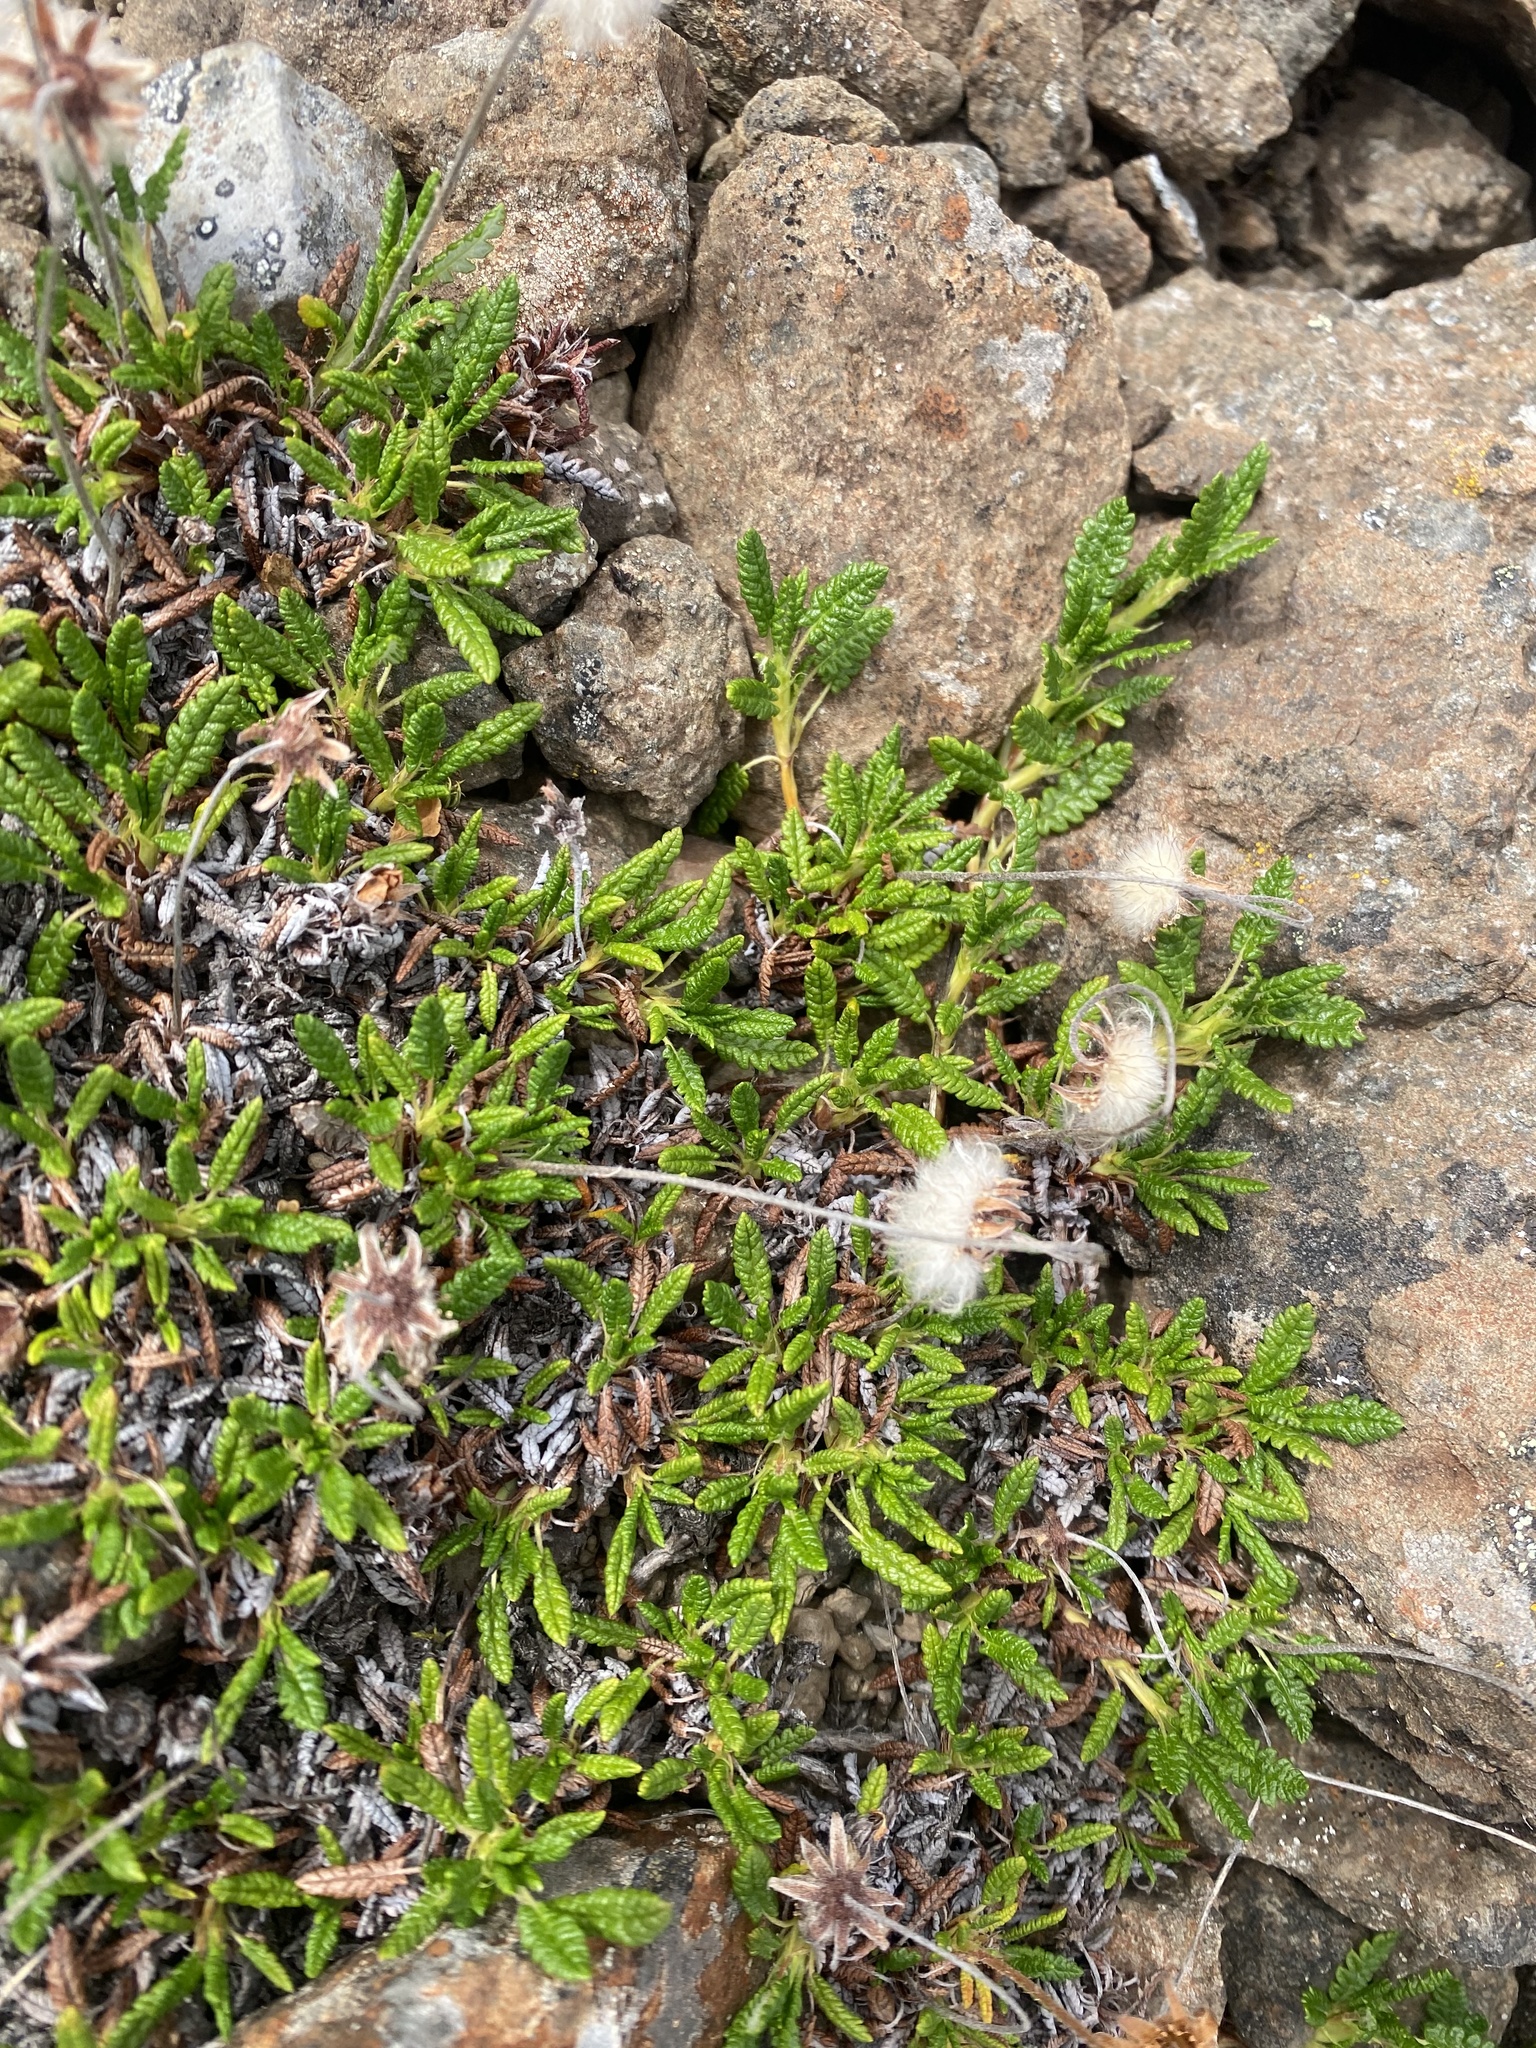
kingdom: Plantae
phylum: Tracheophyta
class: Magnoliopsida
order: Rosales
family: Rosaceae
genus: Dryas
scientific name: Dryas octopetala
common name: Eight-petal mountain-avens
